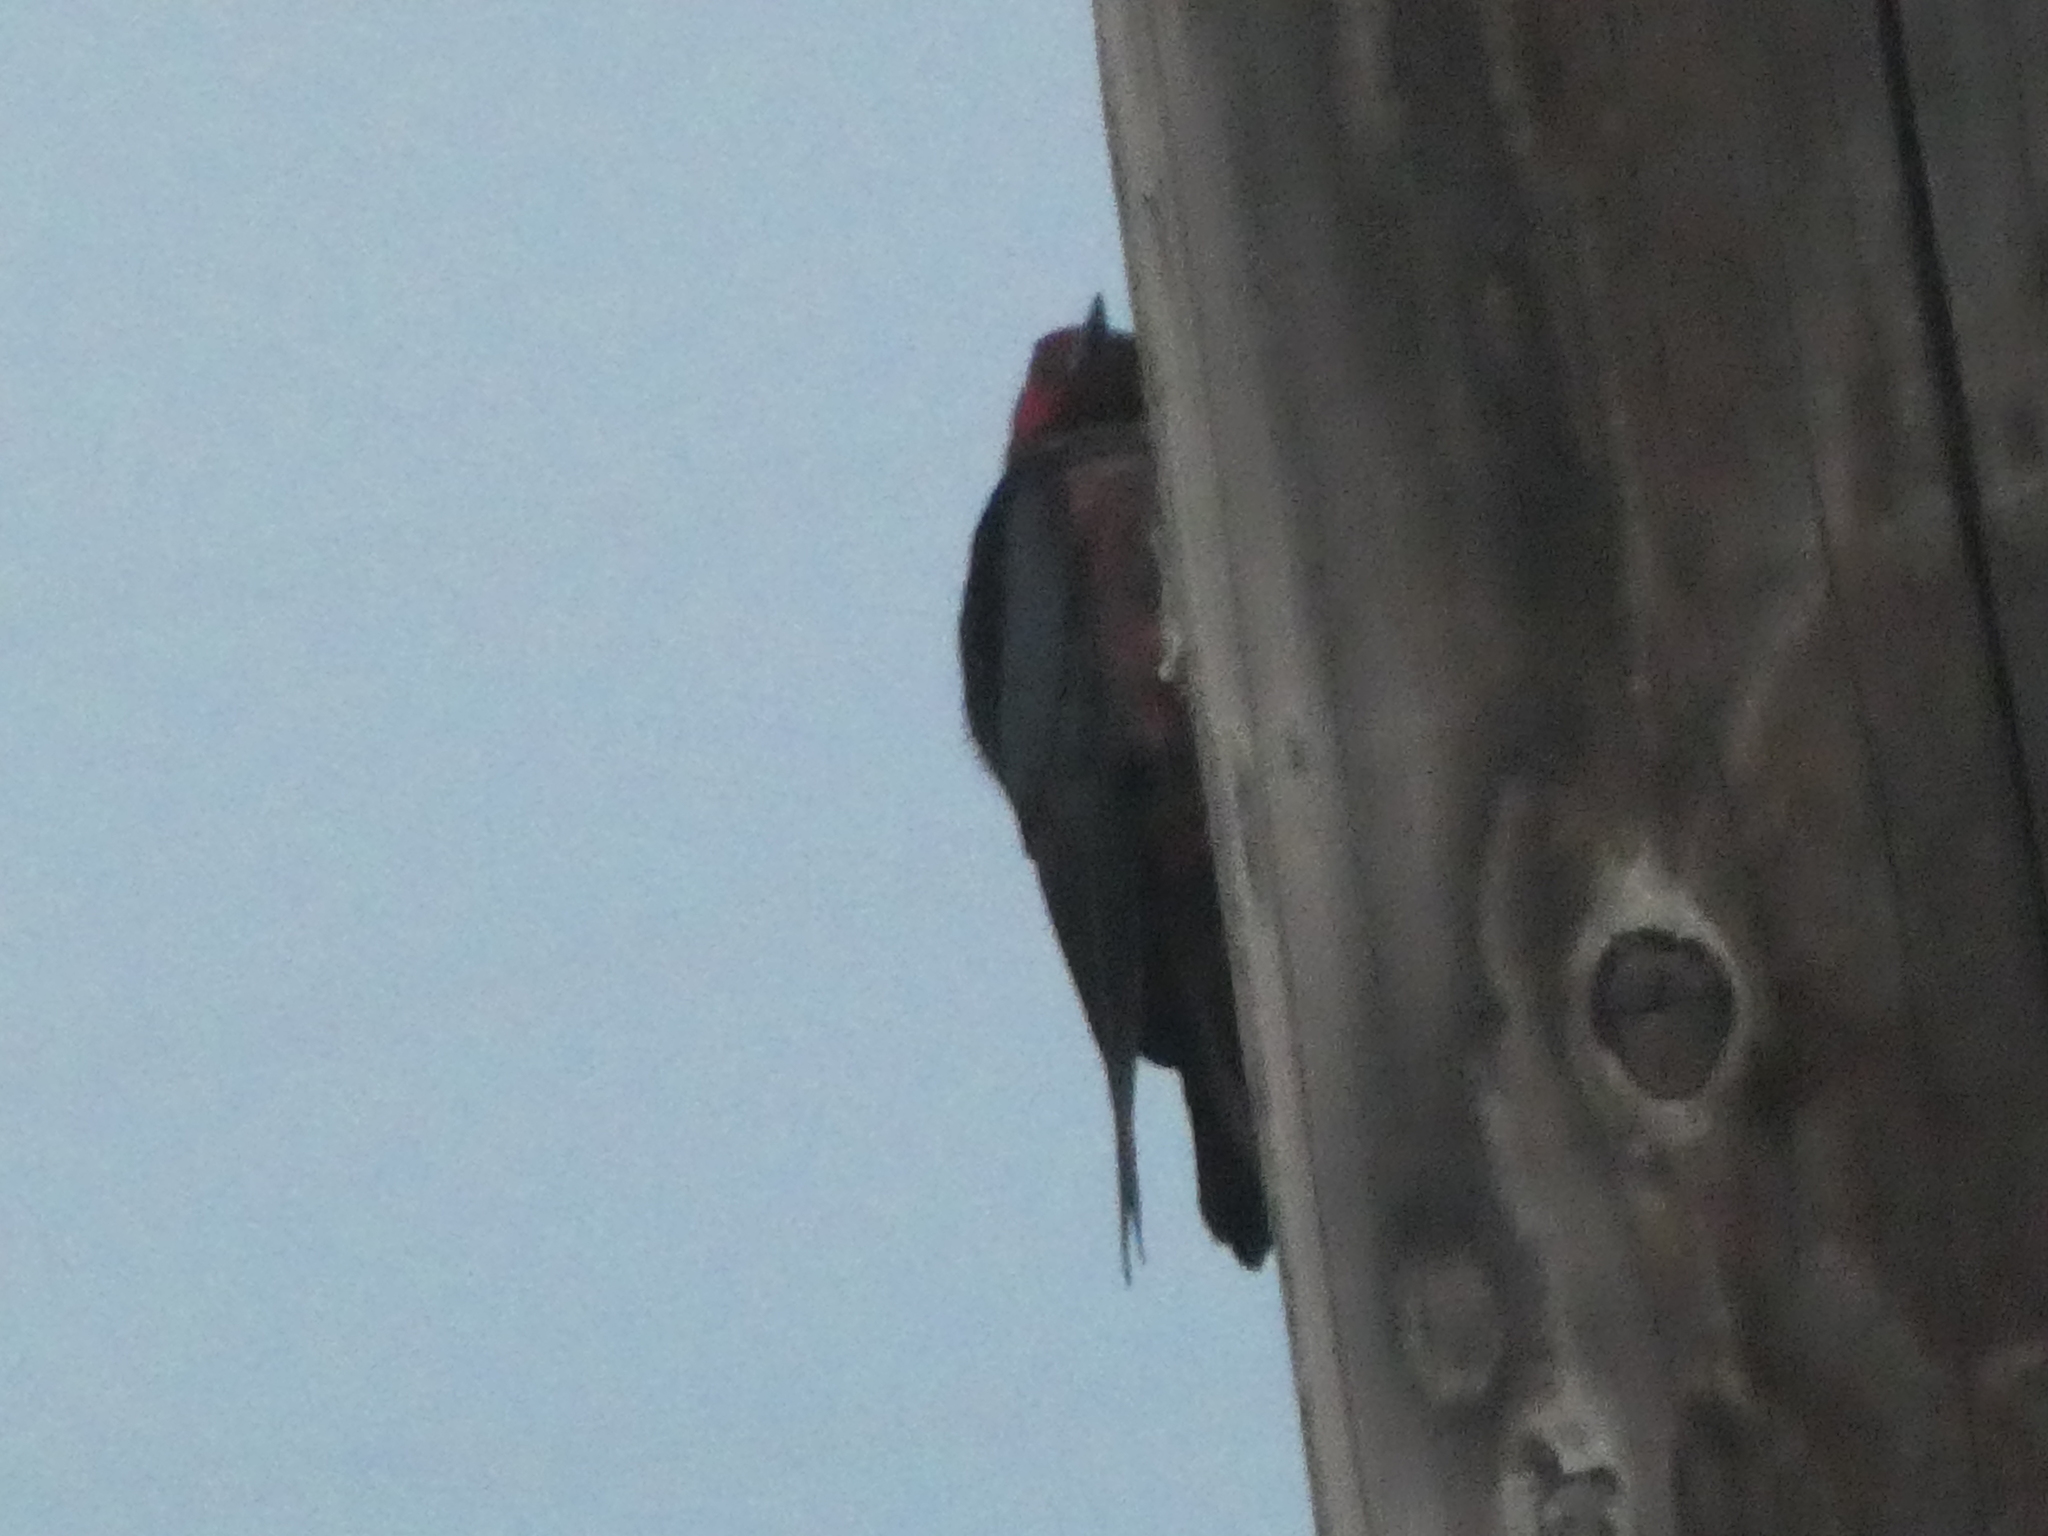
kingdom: Animalia
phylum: Chordata
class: Aves
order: Piciformes
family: Picidae
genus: Melanerpes
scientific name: Melanerpes lewis
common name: Lewis's woodpecker
